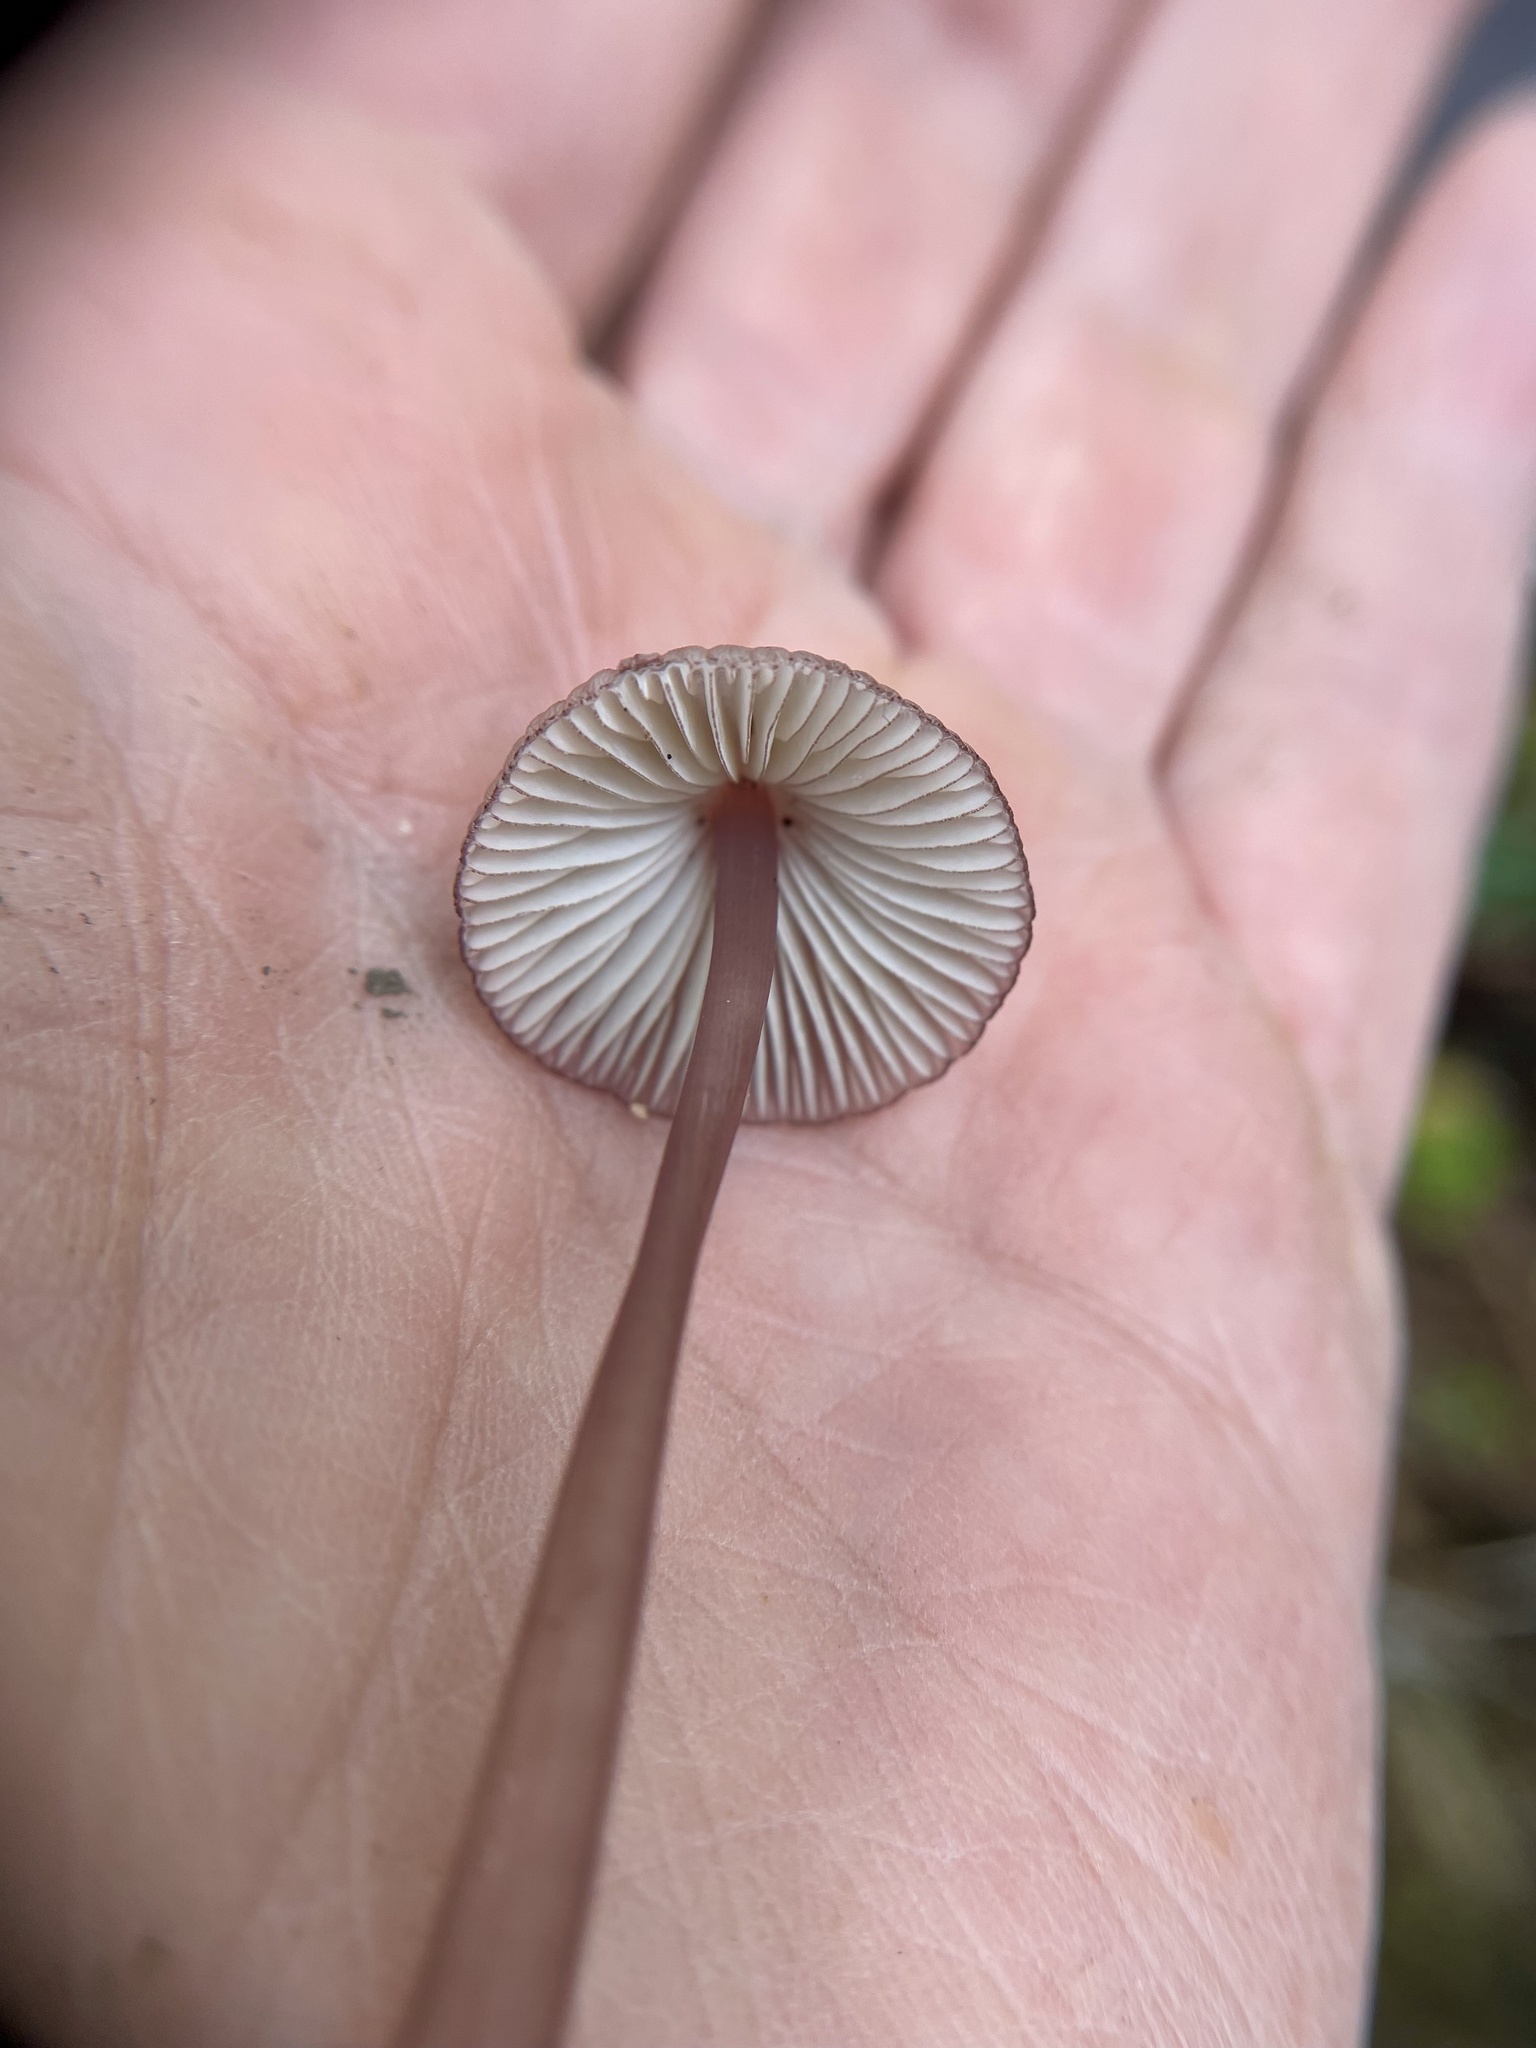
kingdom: Fungi
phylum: Basidiomycota
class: Agaricomycetes
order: Agaricales
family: Mycenaceae
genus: Mycena
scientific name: Mycena purpureofusca
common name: Purple edge bonnet
